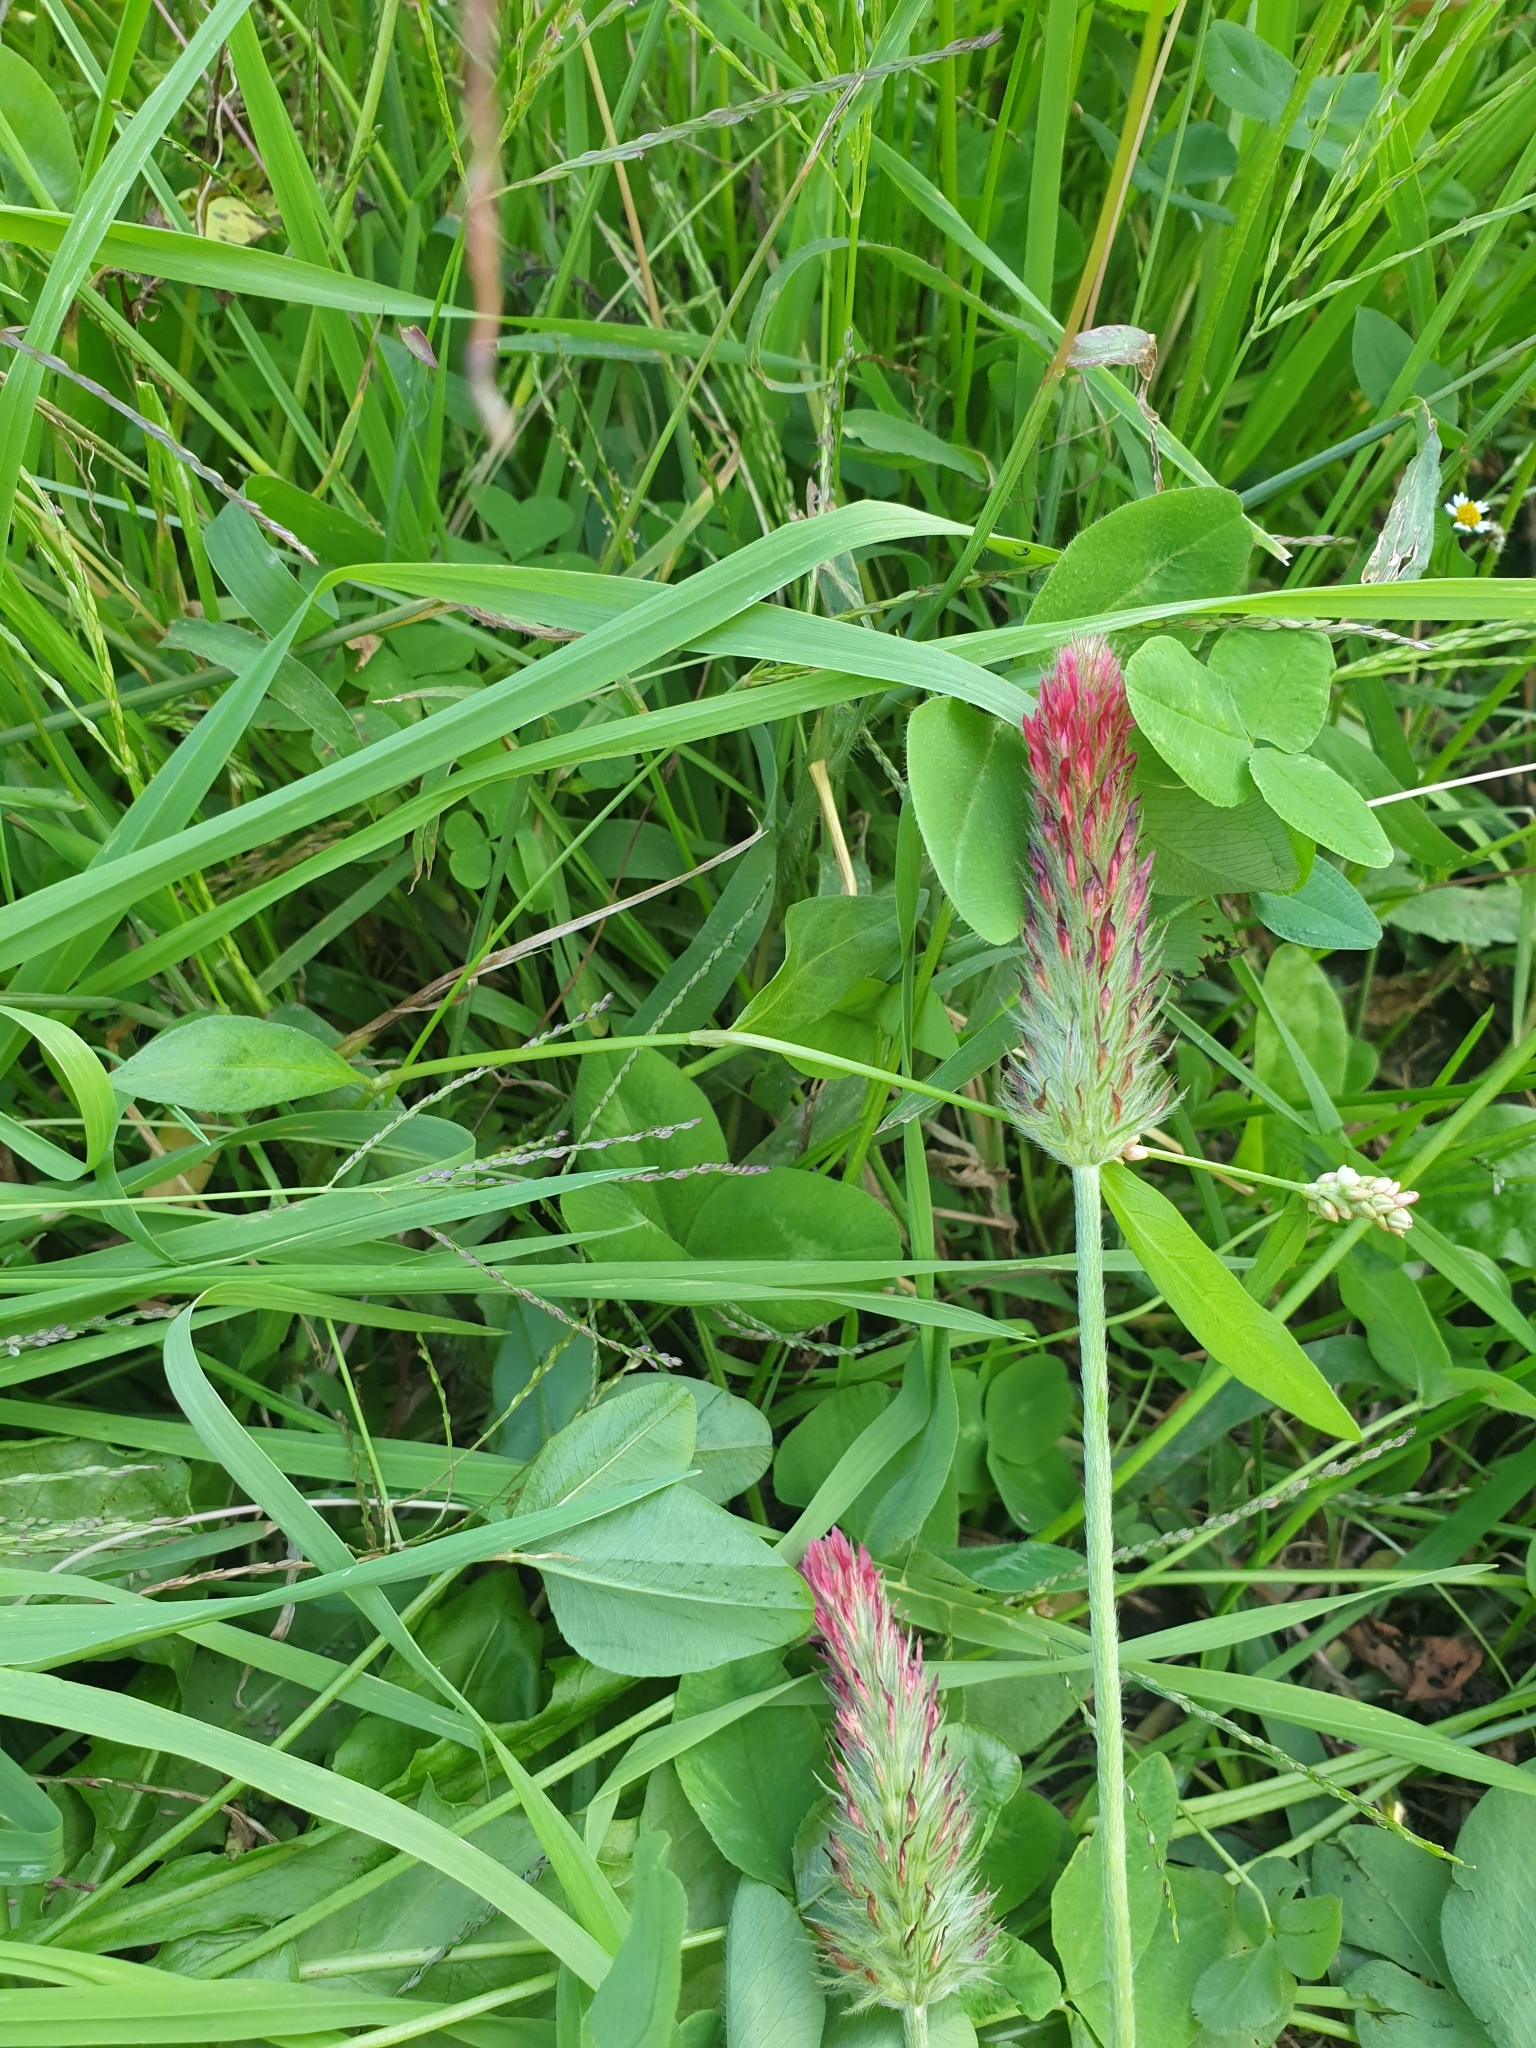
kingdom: Plantae
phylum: Tracheophyta
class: Magnoliopsida
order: Fabales
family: Fabaceae
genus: Trifolium
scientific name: Trifolium incarnatum
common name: Crimson clover
